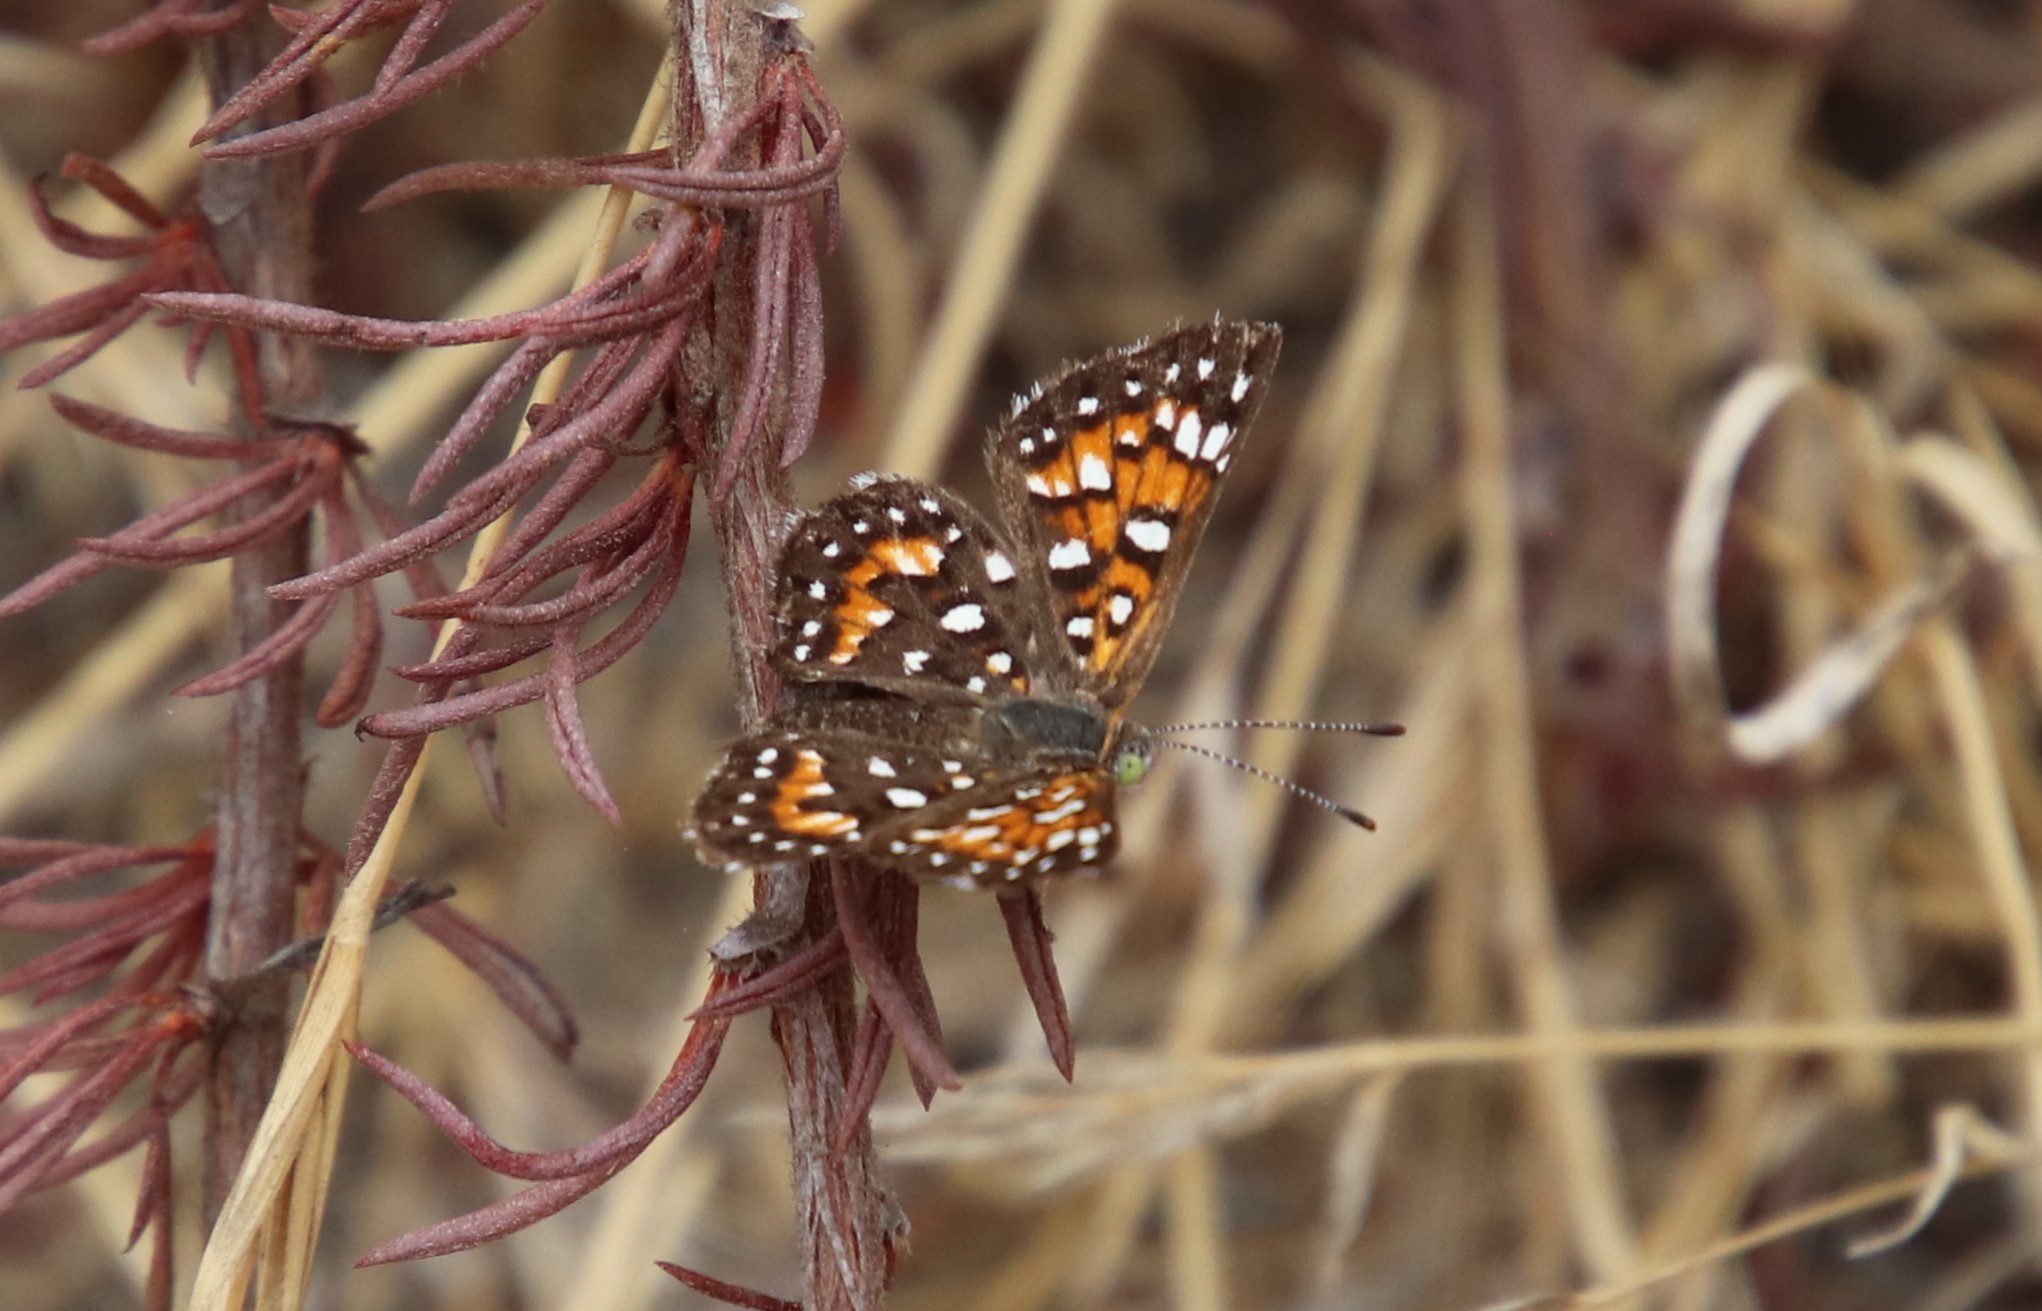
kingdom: Animalia
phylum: Arthropoda
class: Insecta
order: Lepidoptera
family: Riodinidae
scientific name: Riodinidae
